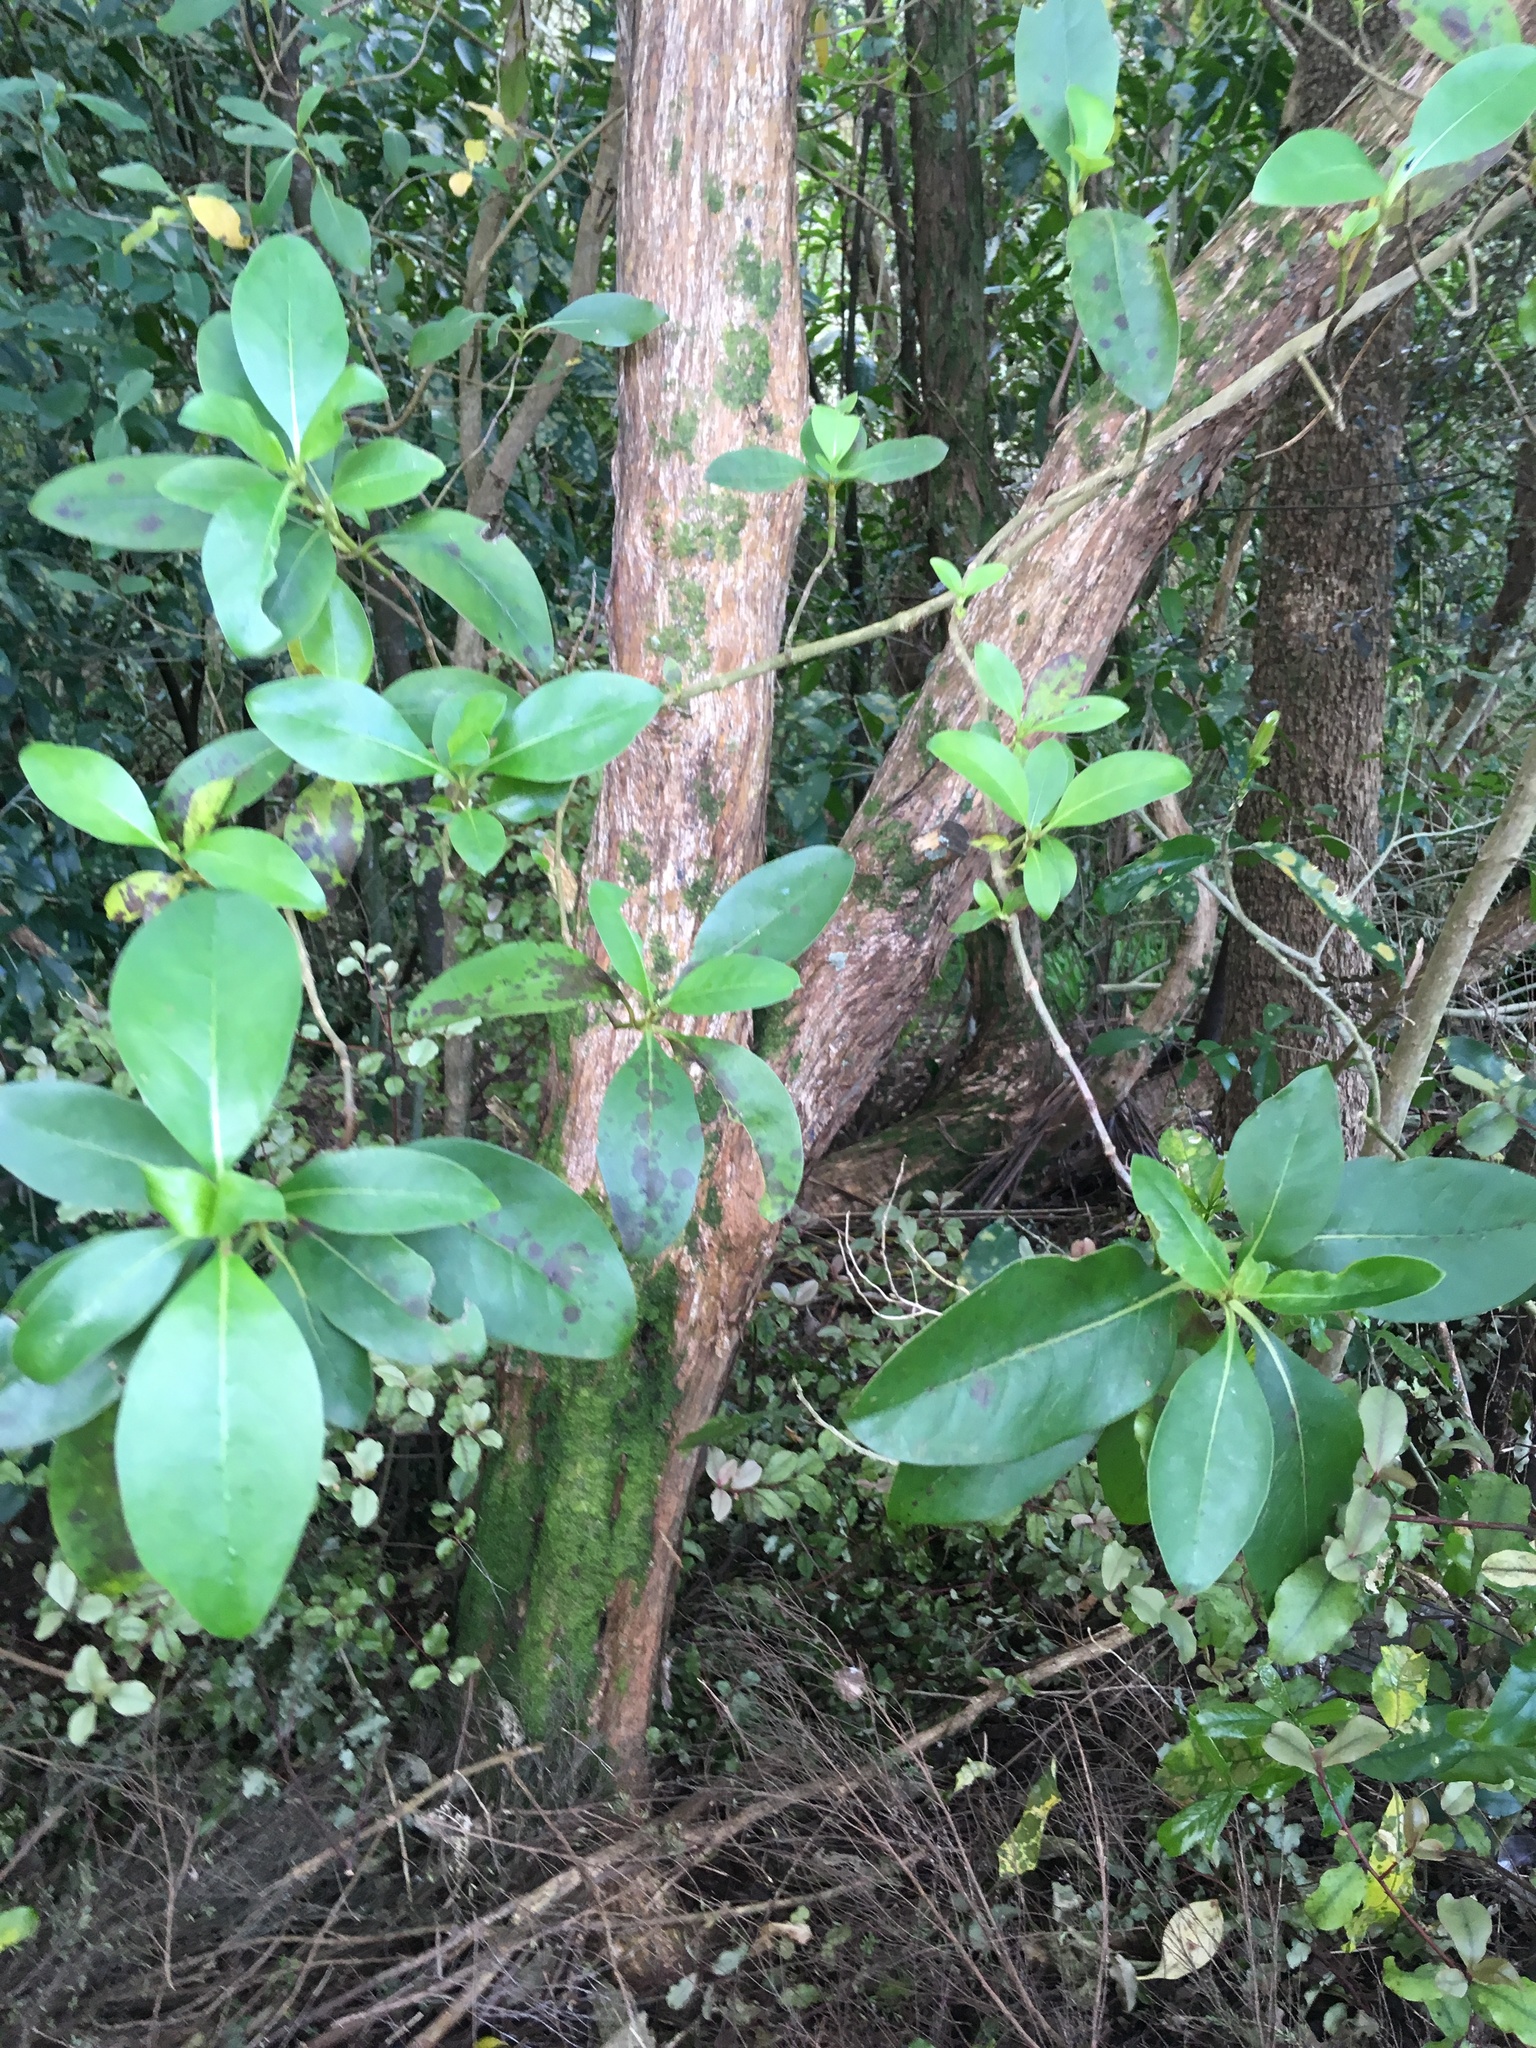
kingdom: Plantae
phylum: Tracheophyta
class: Magnoliopsida
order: Gentianales
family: Rubiaceae
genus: Coprosma
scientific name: Coprosma robusta
